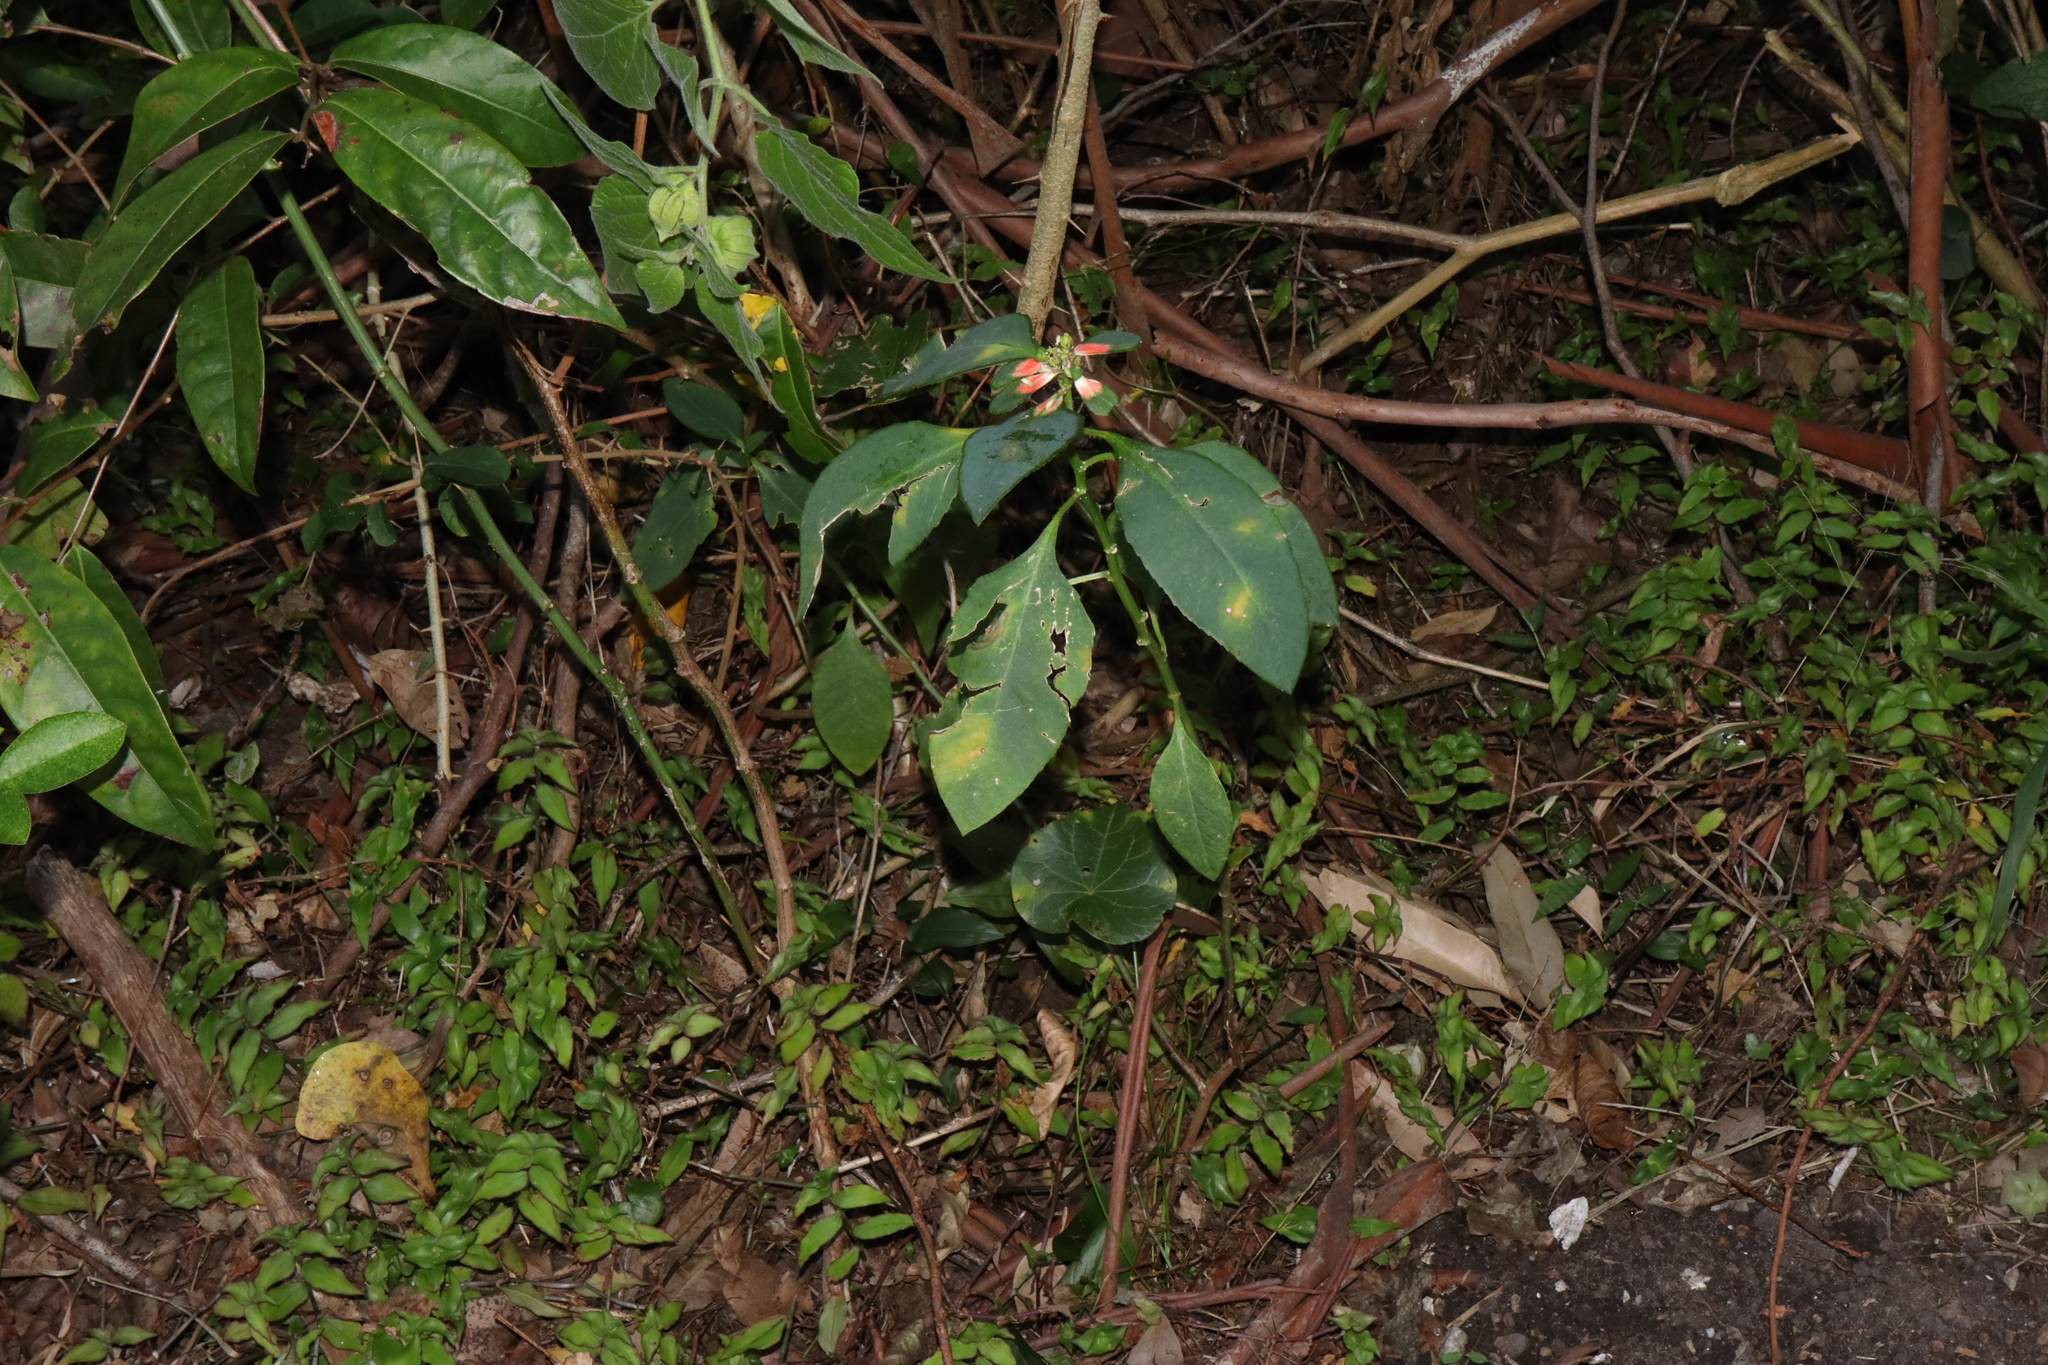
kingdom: Plantae
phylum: Tracheophyta
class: Magnoliopsida
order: Malpighiales
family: Euphorbiaceae
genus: Euphorbia
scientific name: Euphorbia heterophylla
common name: Mexican fireplant
